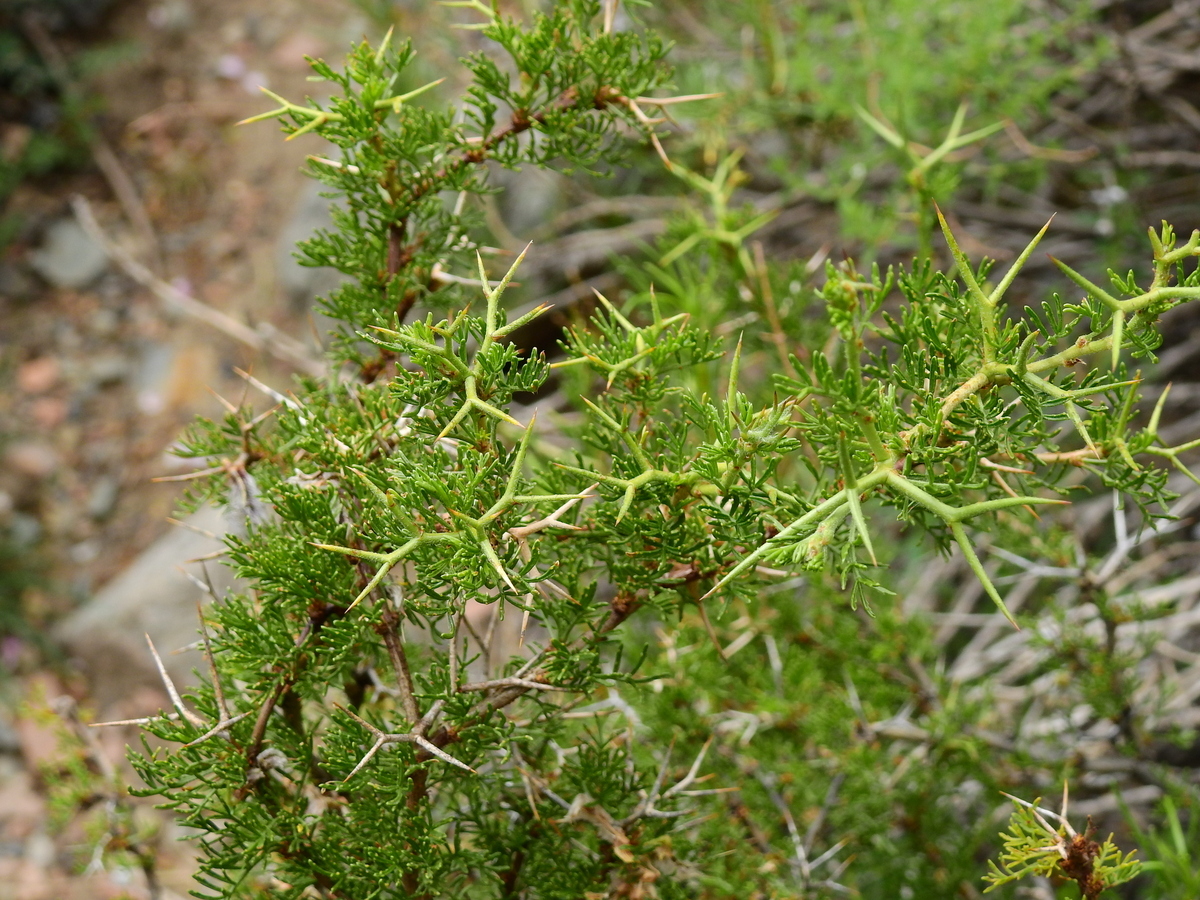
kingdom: Plantae
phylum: Tracheophyta
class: Magnoliopsida
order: Fabales
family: Fabaceae
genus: Adesmia
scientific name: Adesmia pinifolia
